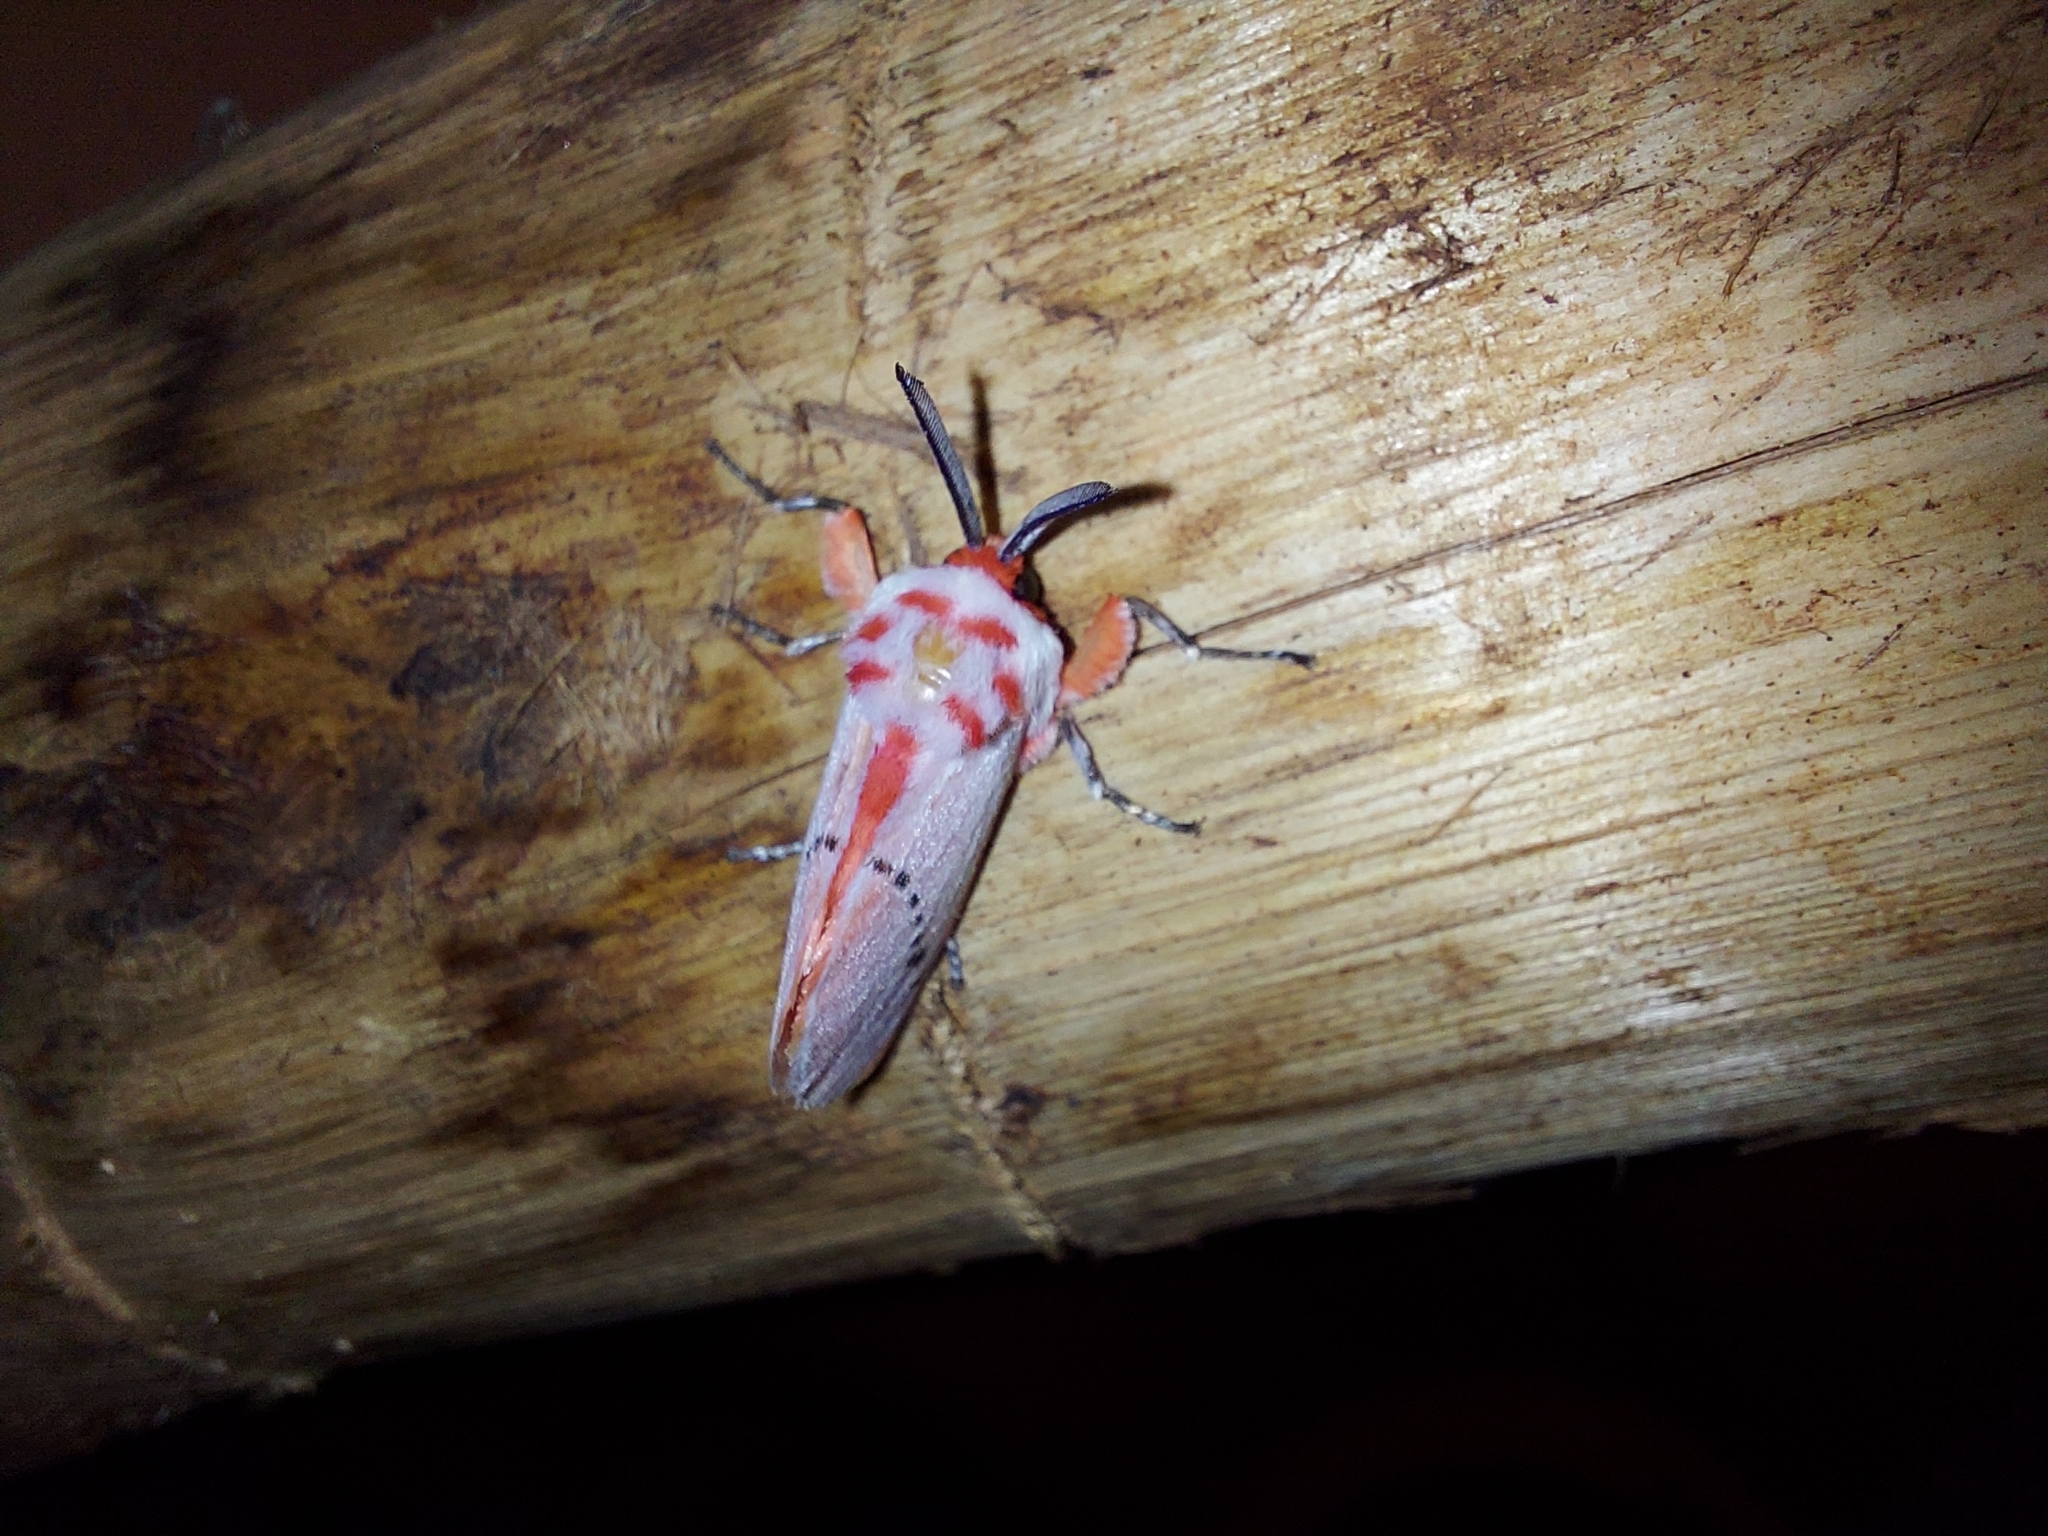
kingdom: Animalia
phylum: Arthropoda
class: Insecta
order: Lepidoptera
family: Megalopygidae
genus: Trosia
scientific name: Trosia misda
